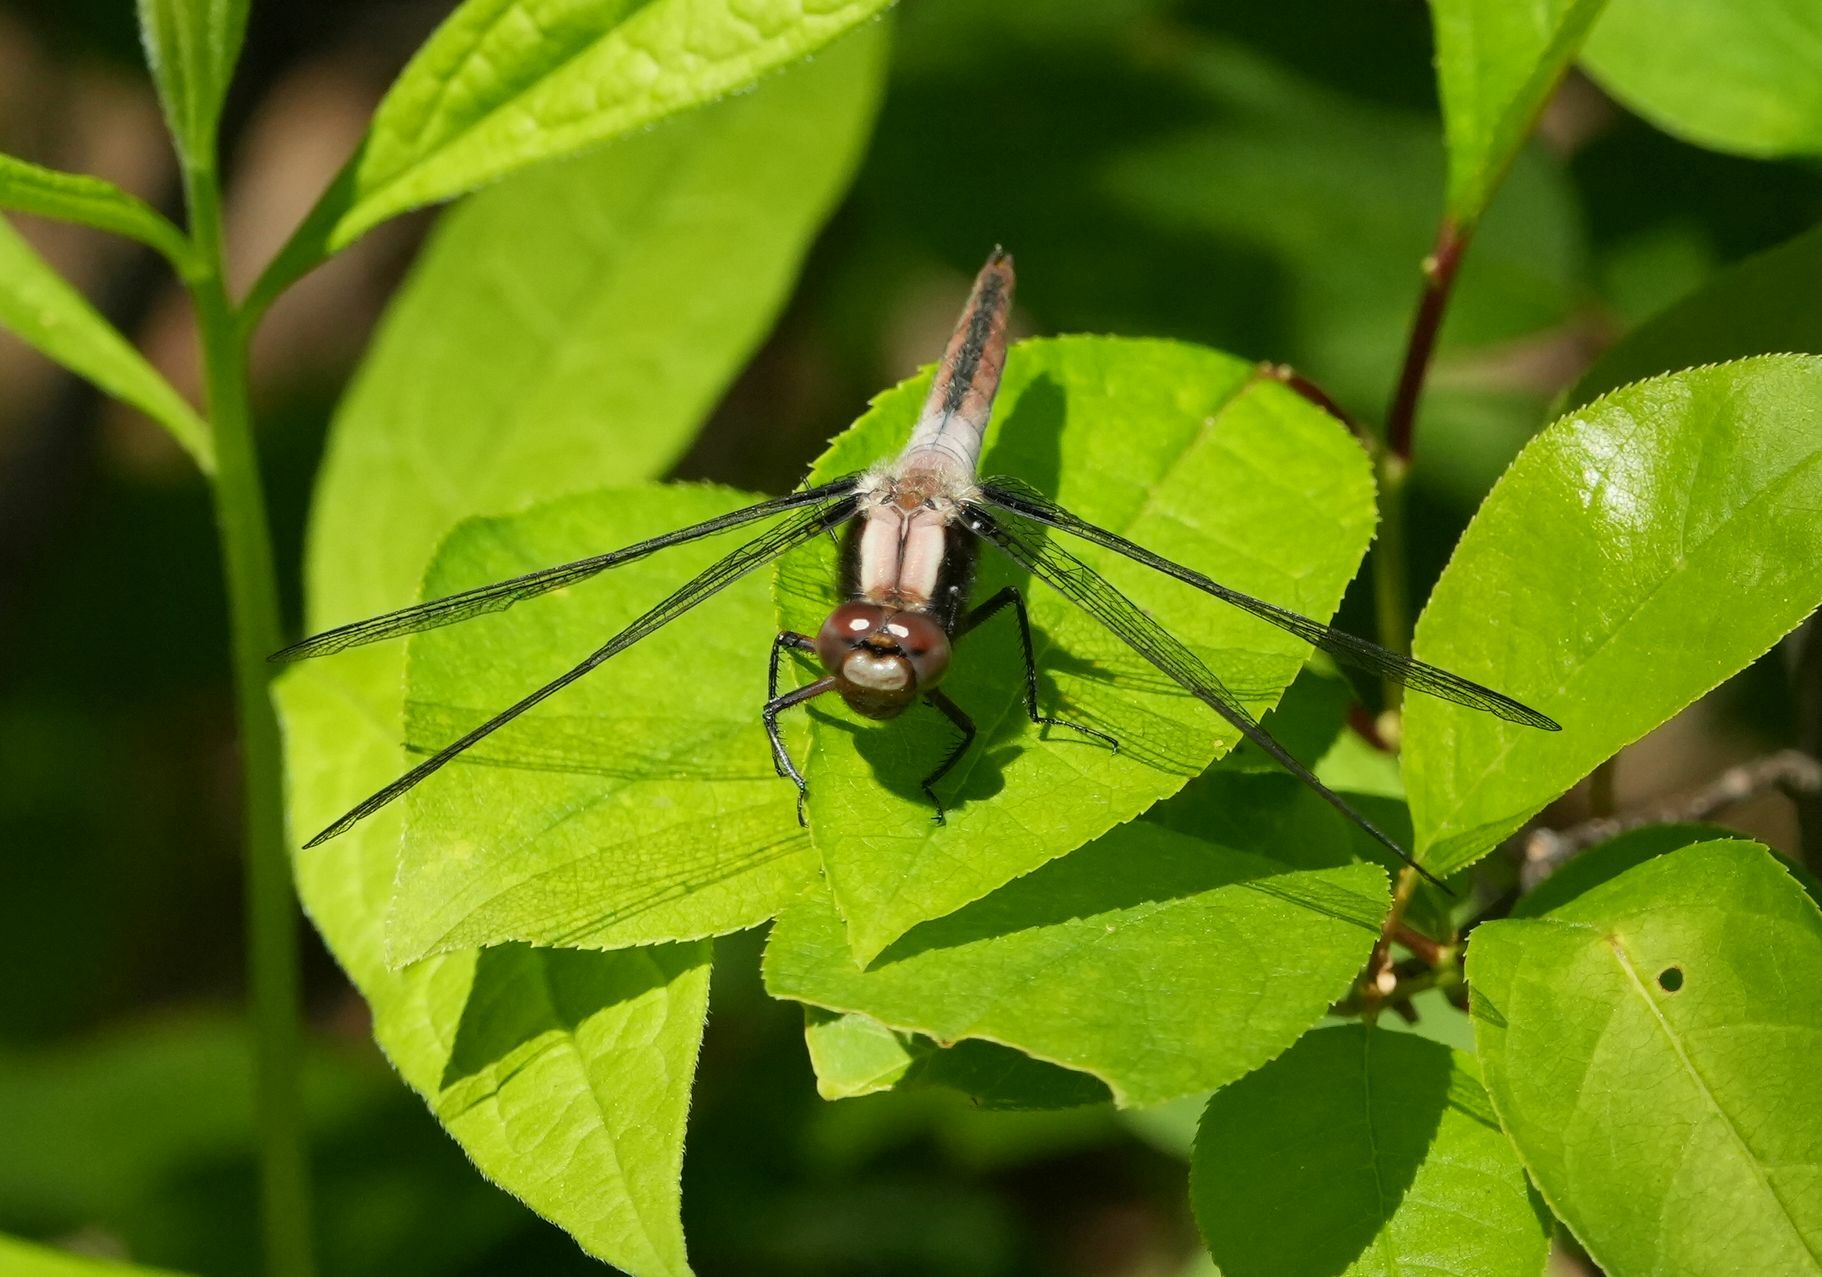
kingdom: Animalia
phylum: Arthropoda
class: Insecta
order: Odonata
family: Libellulidae
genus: Ladona
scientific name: Ladona julia
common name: Chalk-fronted corporal
